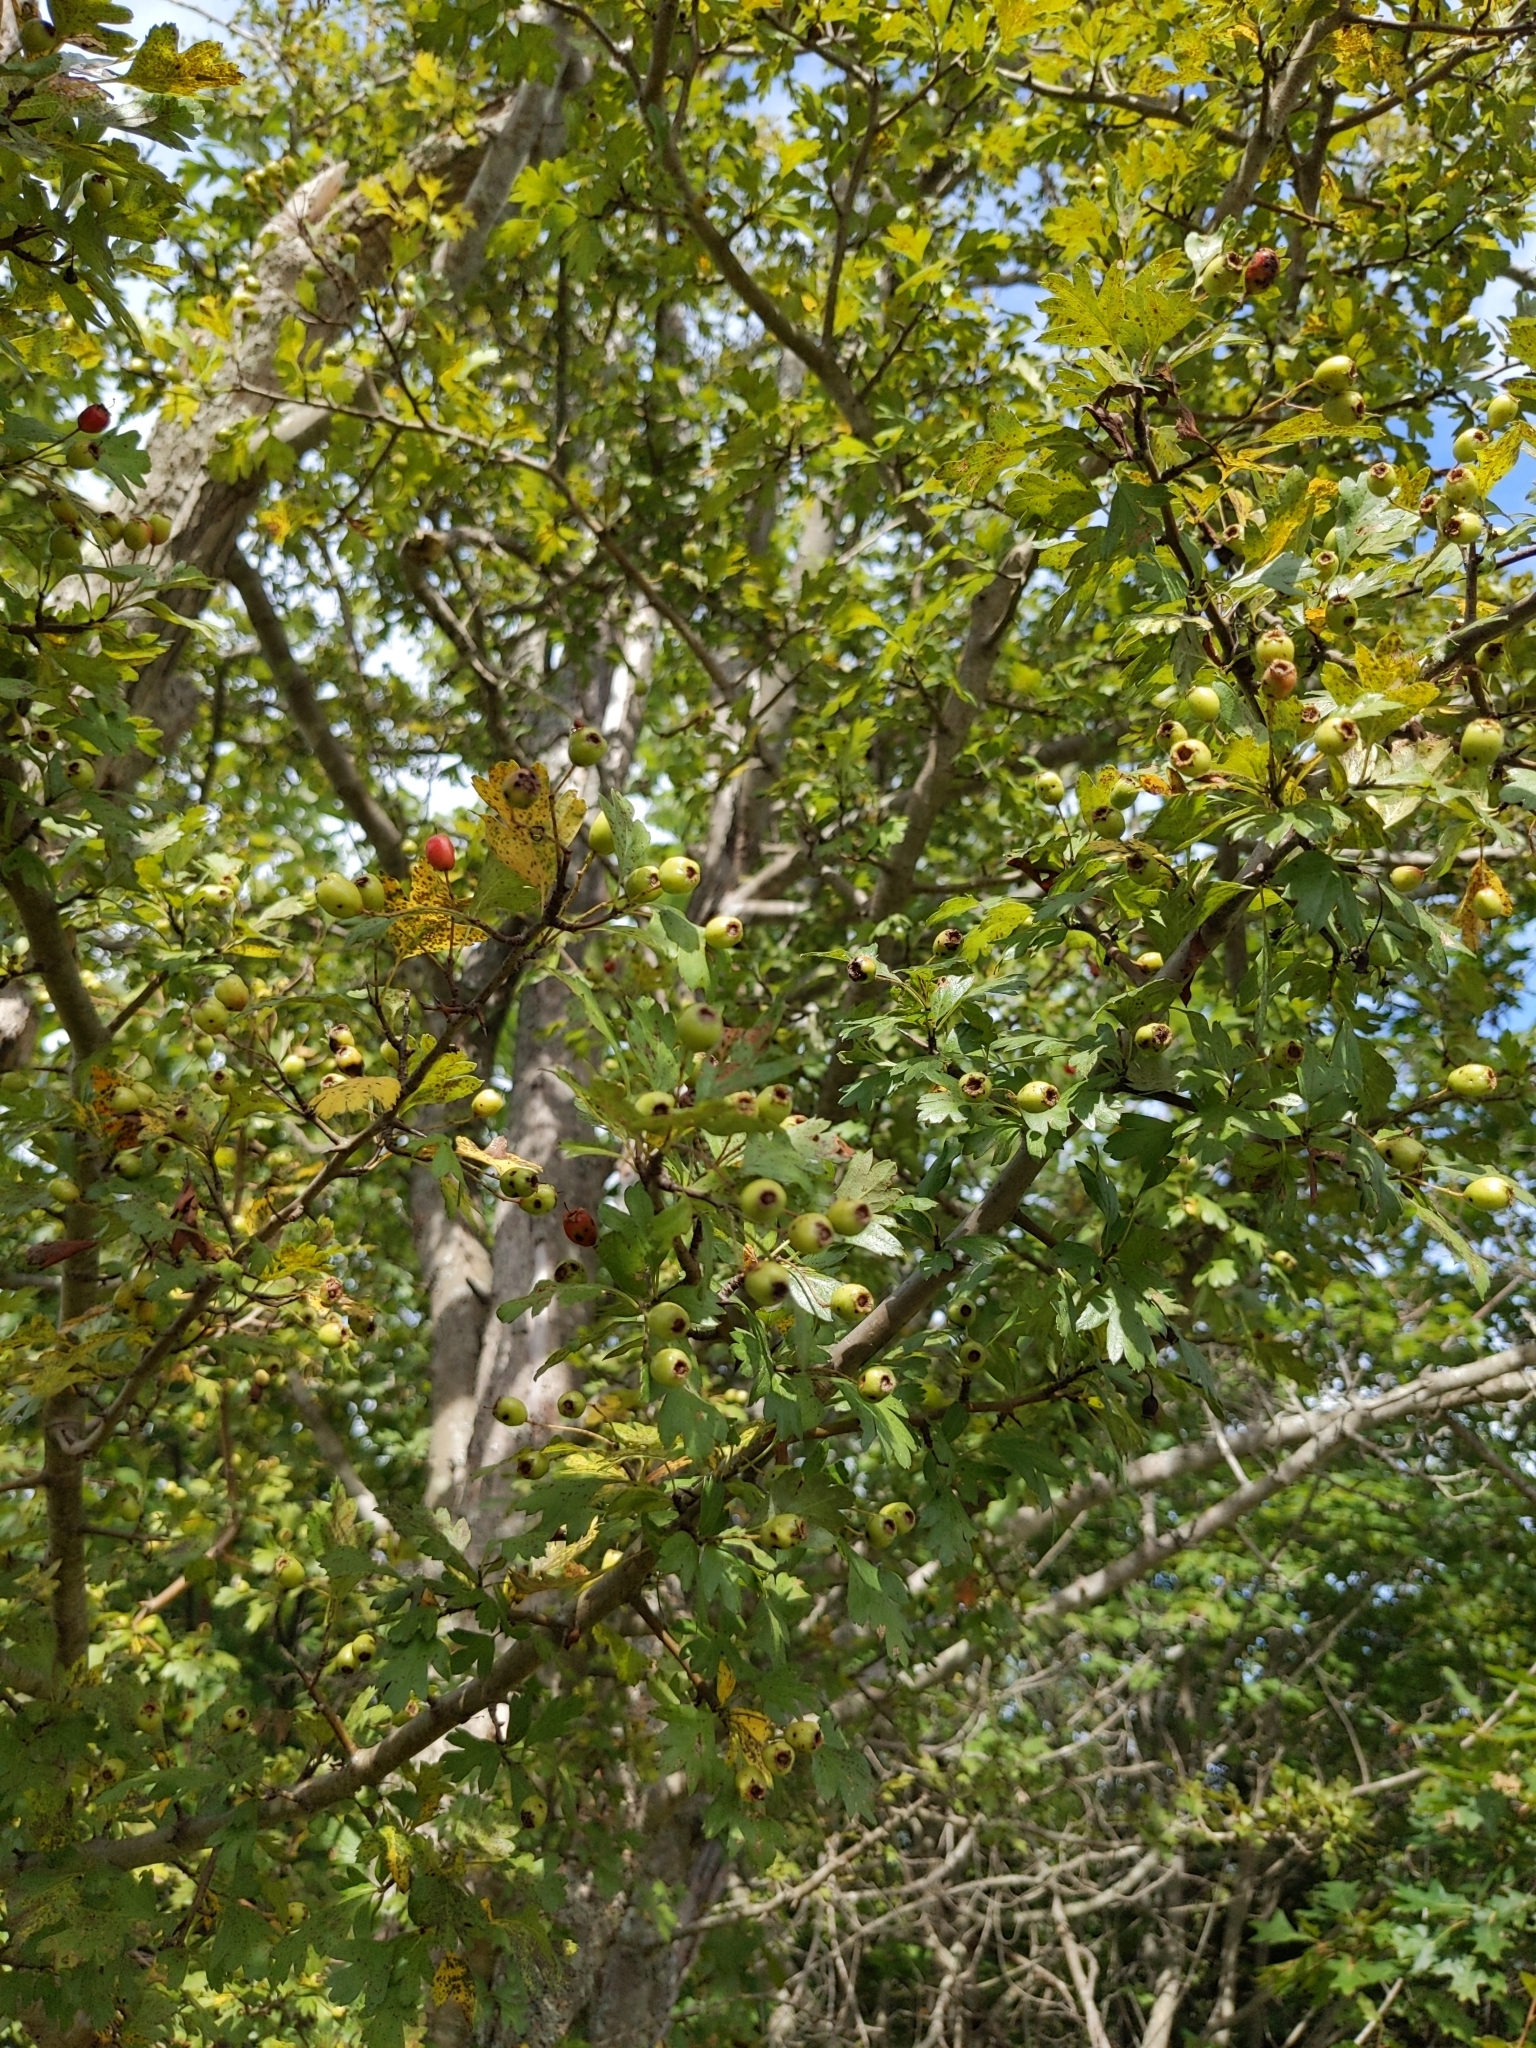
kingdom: Plantae
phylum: Tracheophyta
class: Magnoliopsida
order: Rosales
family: Rosaceae
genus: Crataegus
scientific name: Crataegus monogyna
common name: Hawthorn
